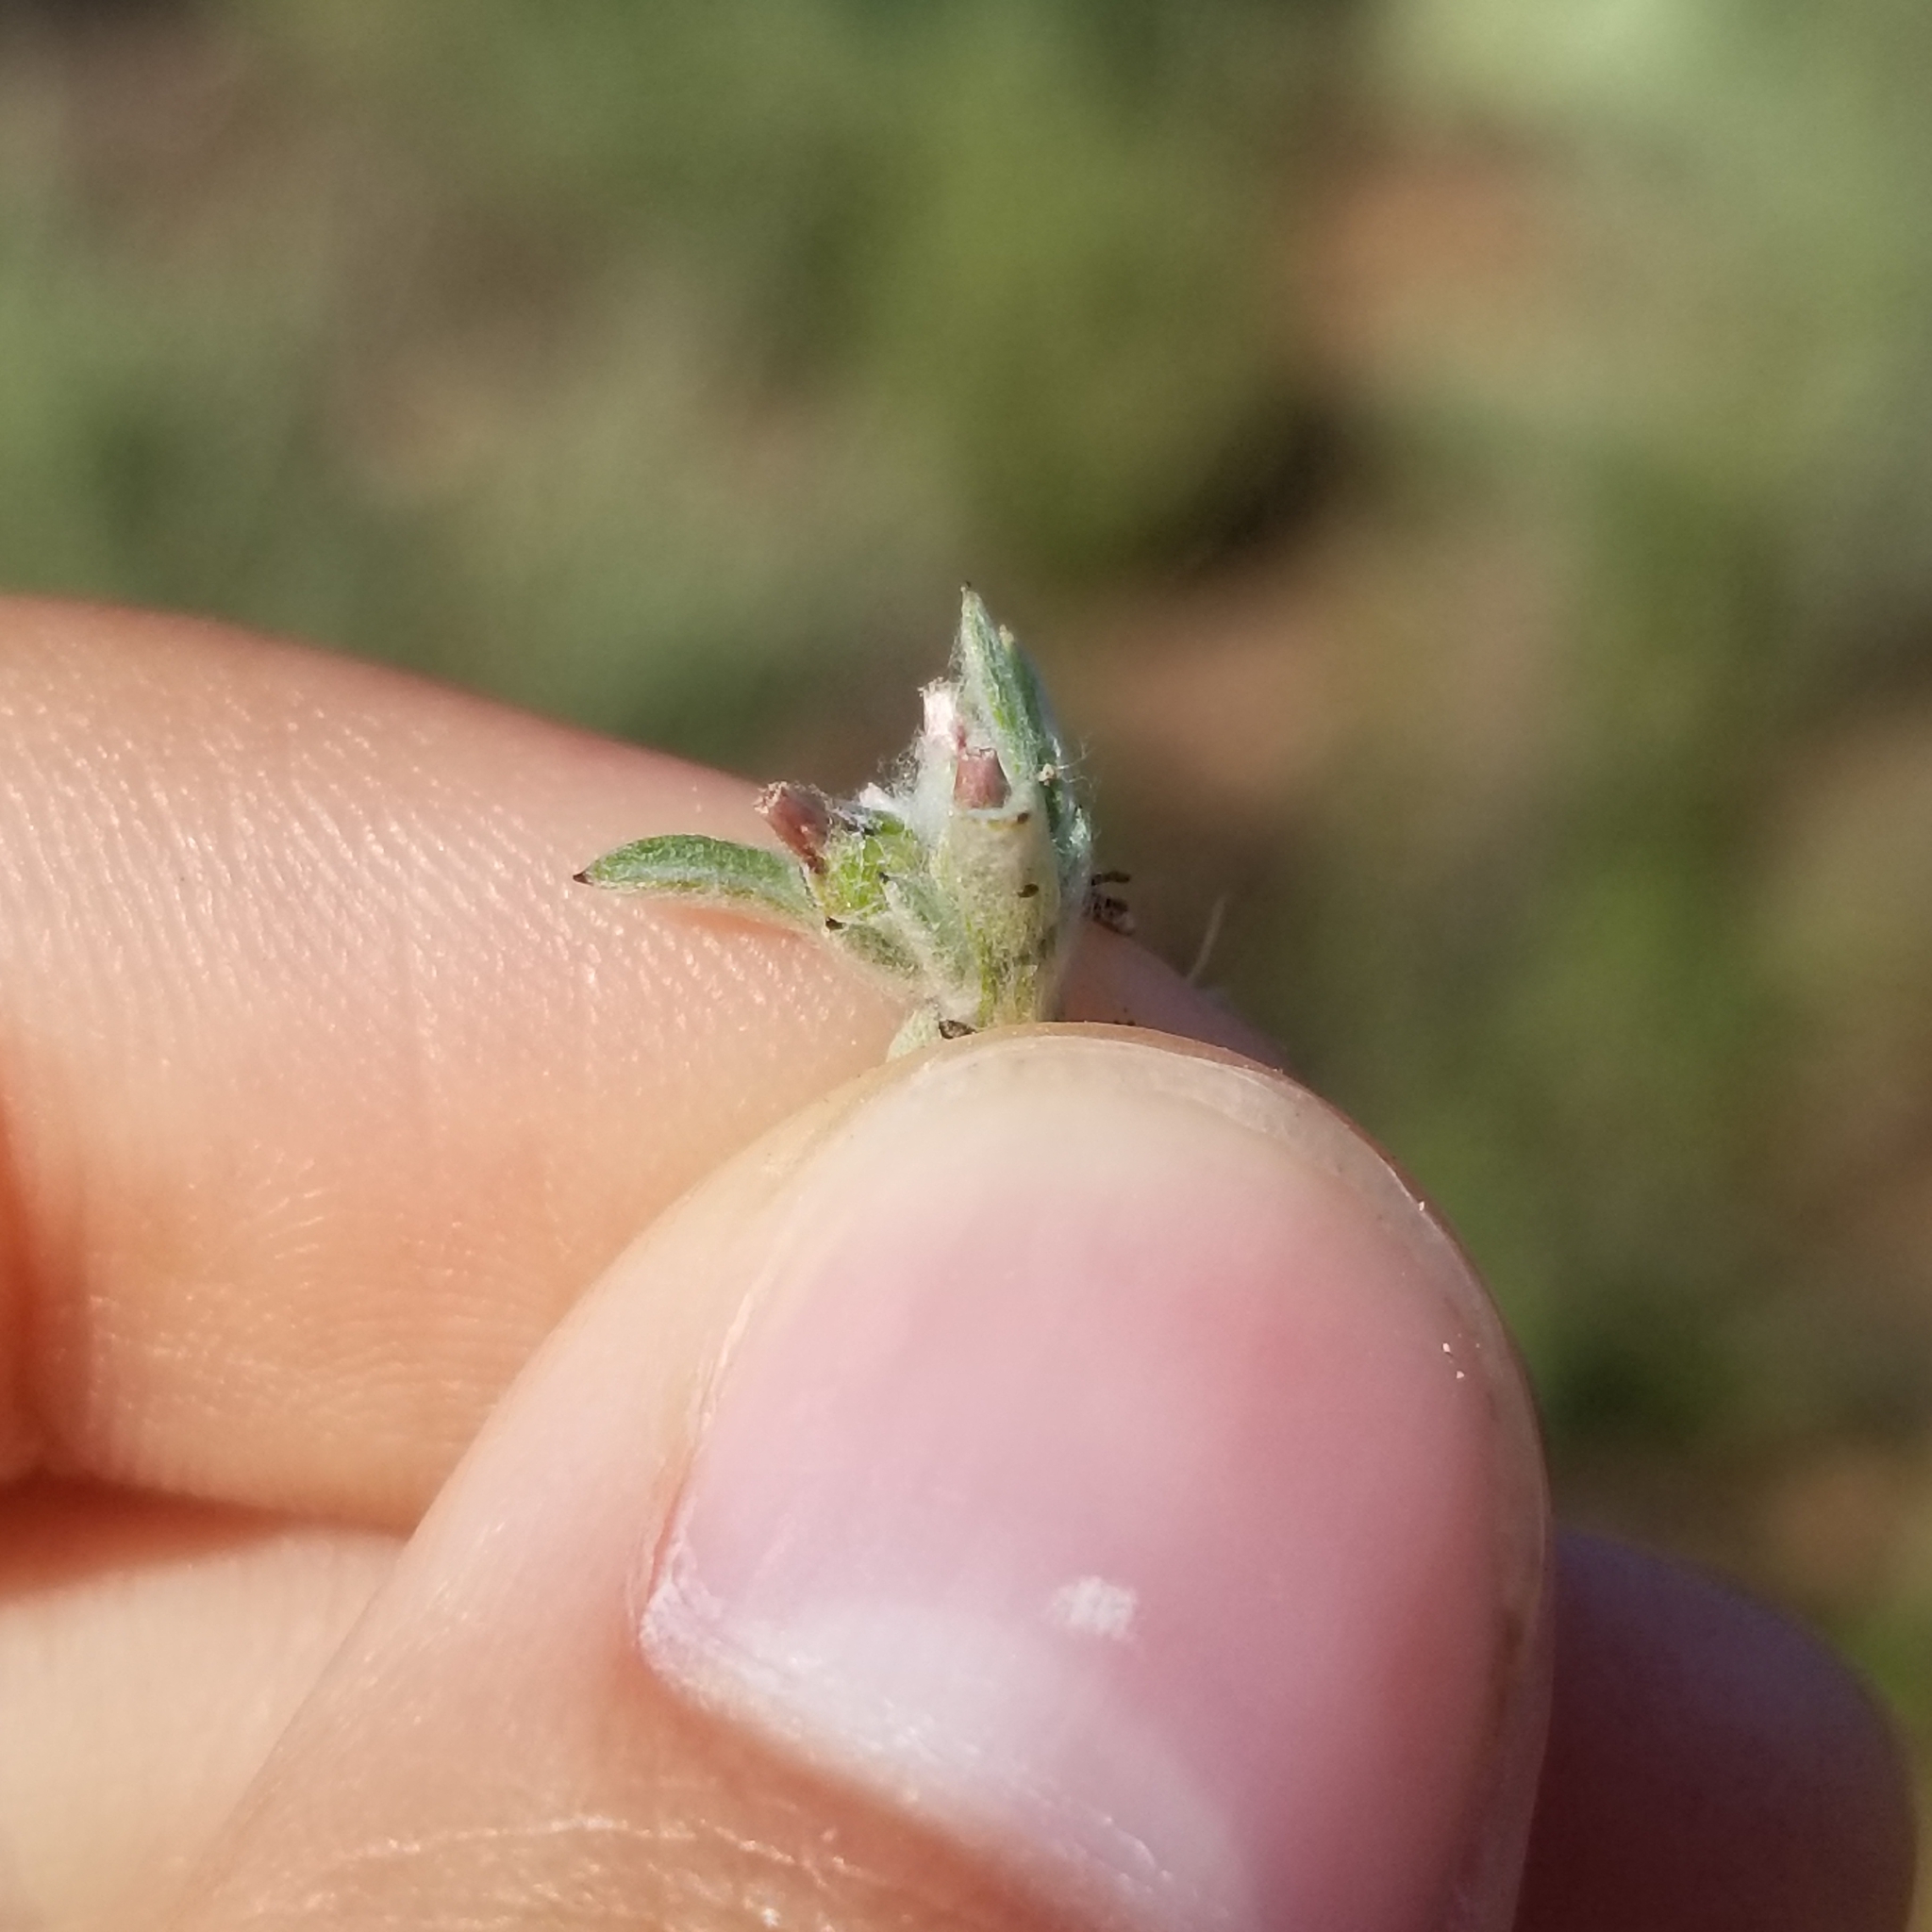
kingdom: Plantae
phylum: Tracheophyta
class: Magnoliopsida
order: Asterales
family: Asteraceae
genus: Gamochaeta
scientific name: Gamochaeta stagnalis
